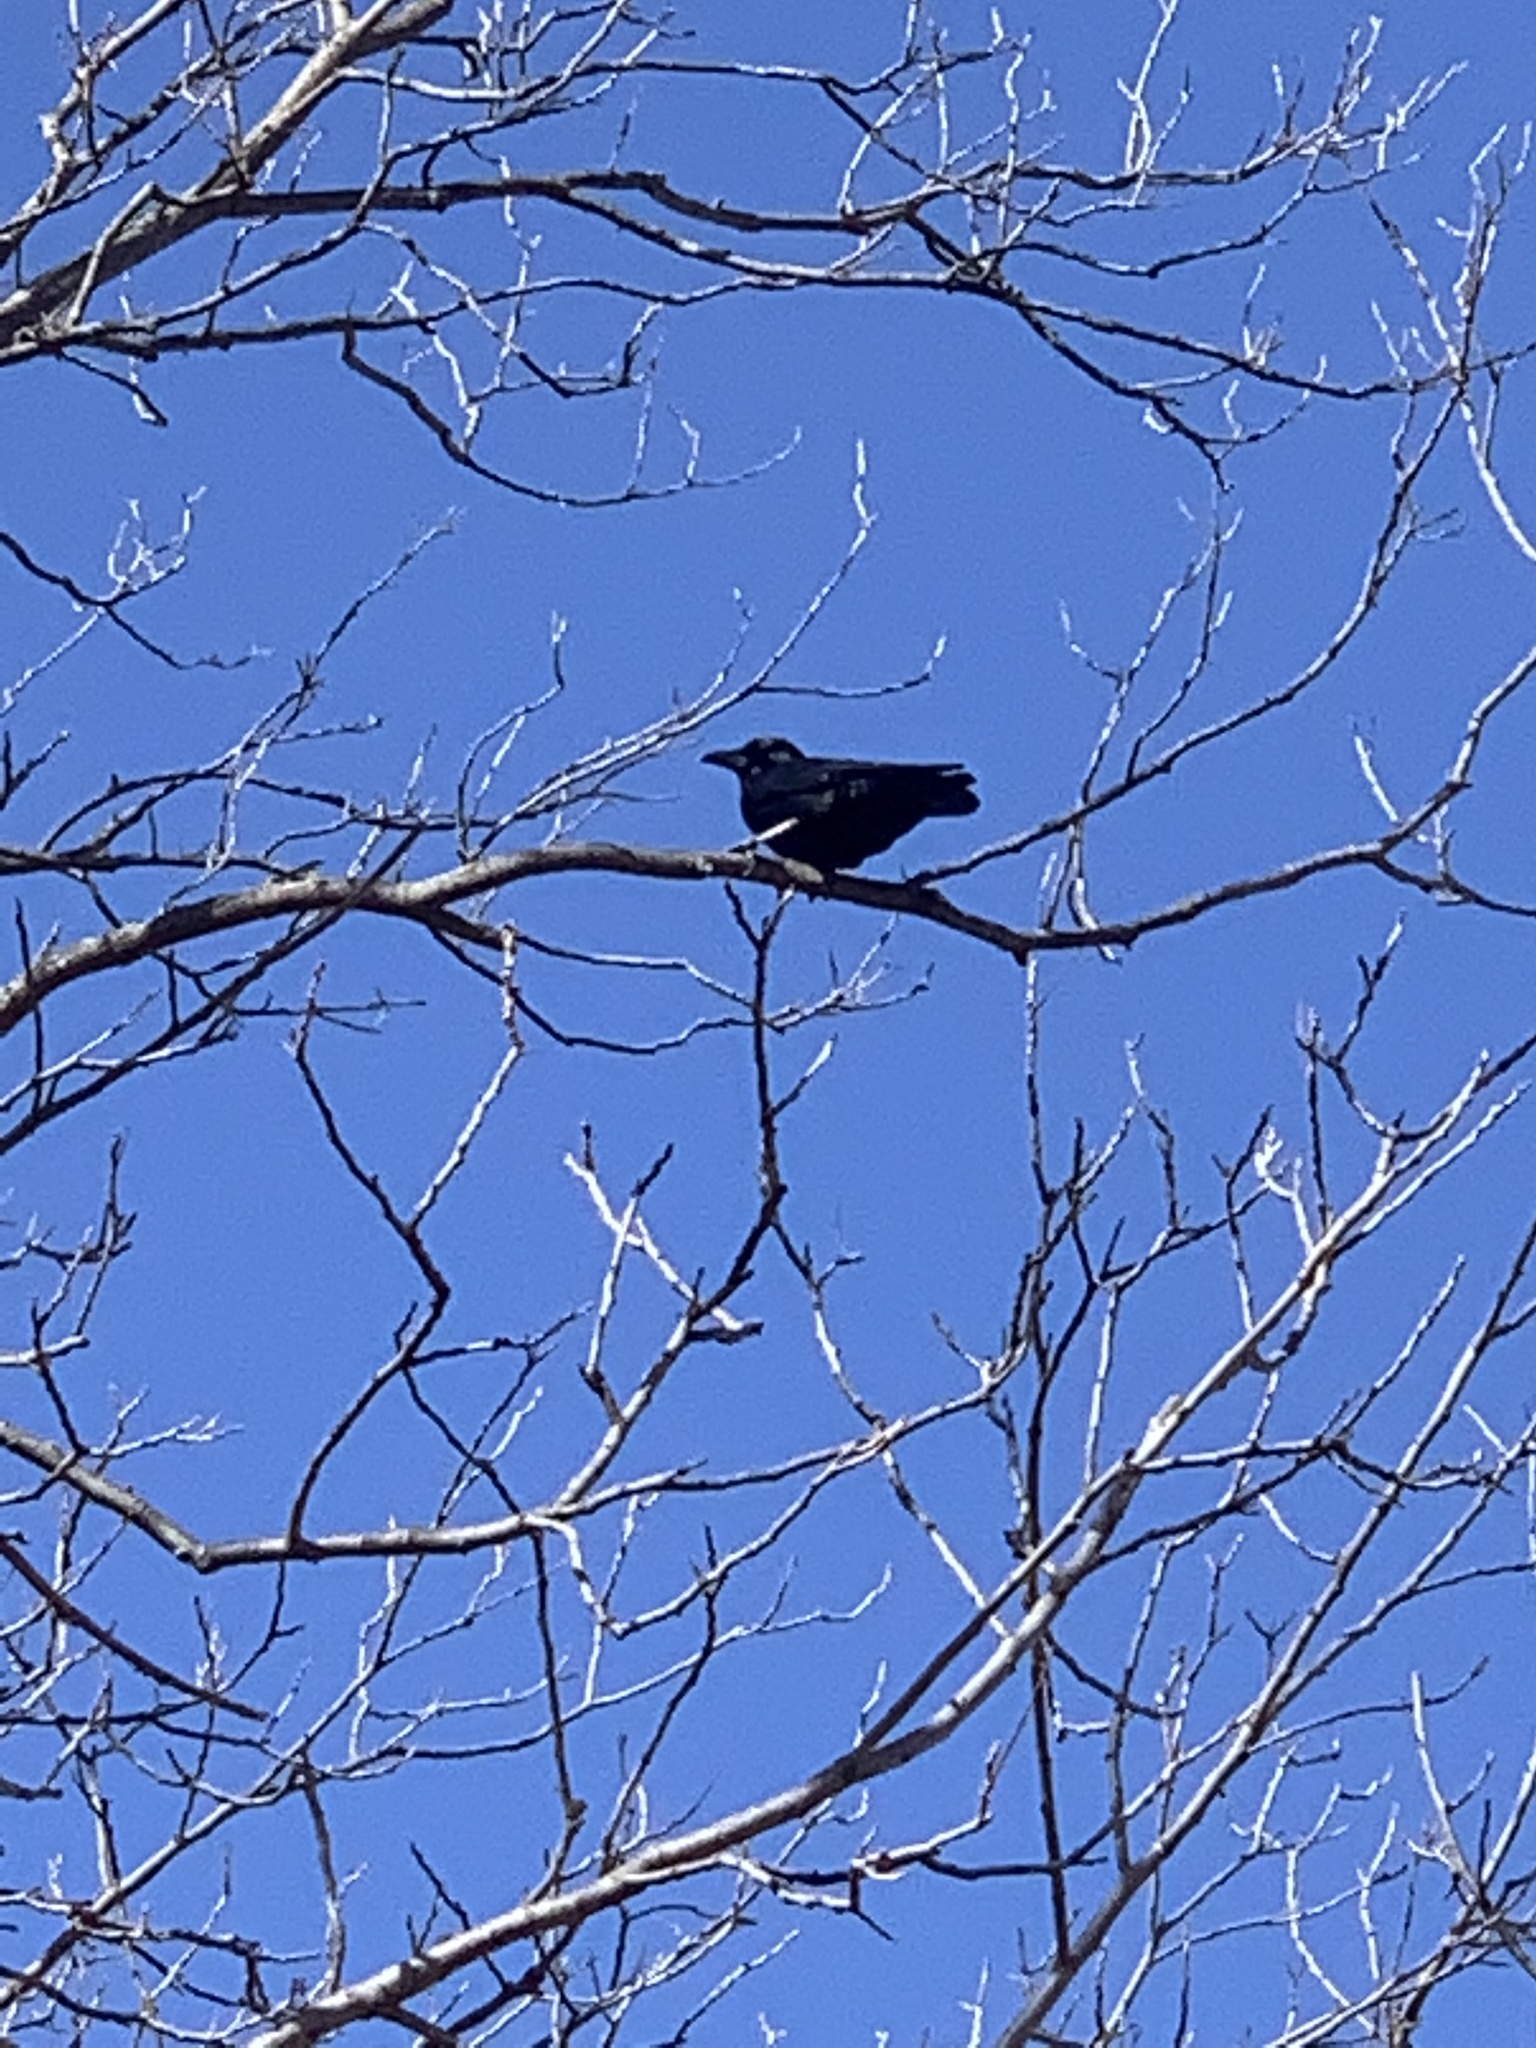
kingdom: Animalia
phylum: Chordata
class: Aves
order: Passeriformes
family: Corvidae
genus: Corvus
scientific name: Corvus brachyrhynchos
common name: American crow
